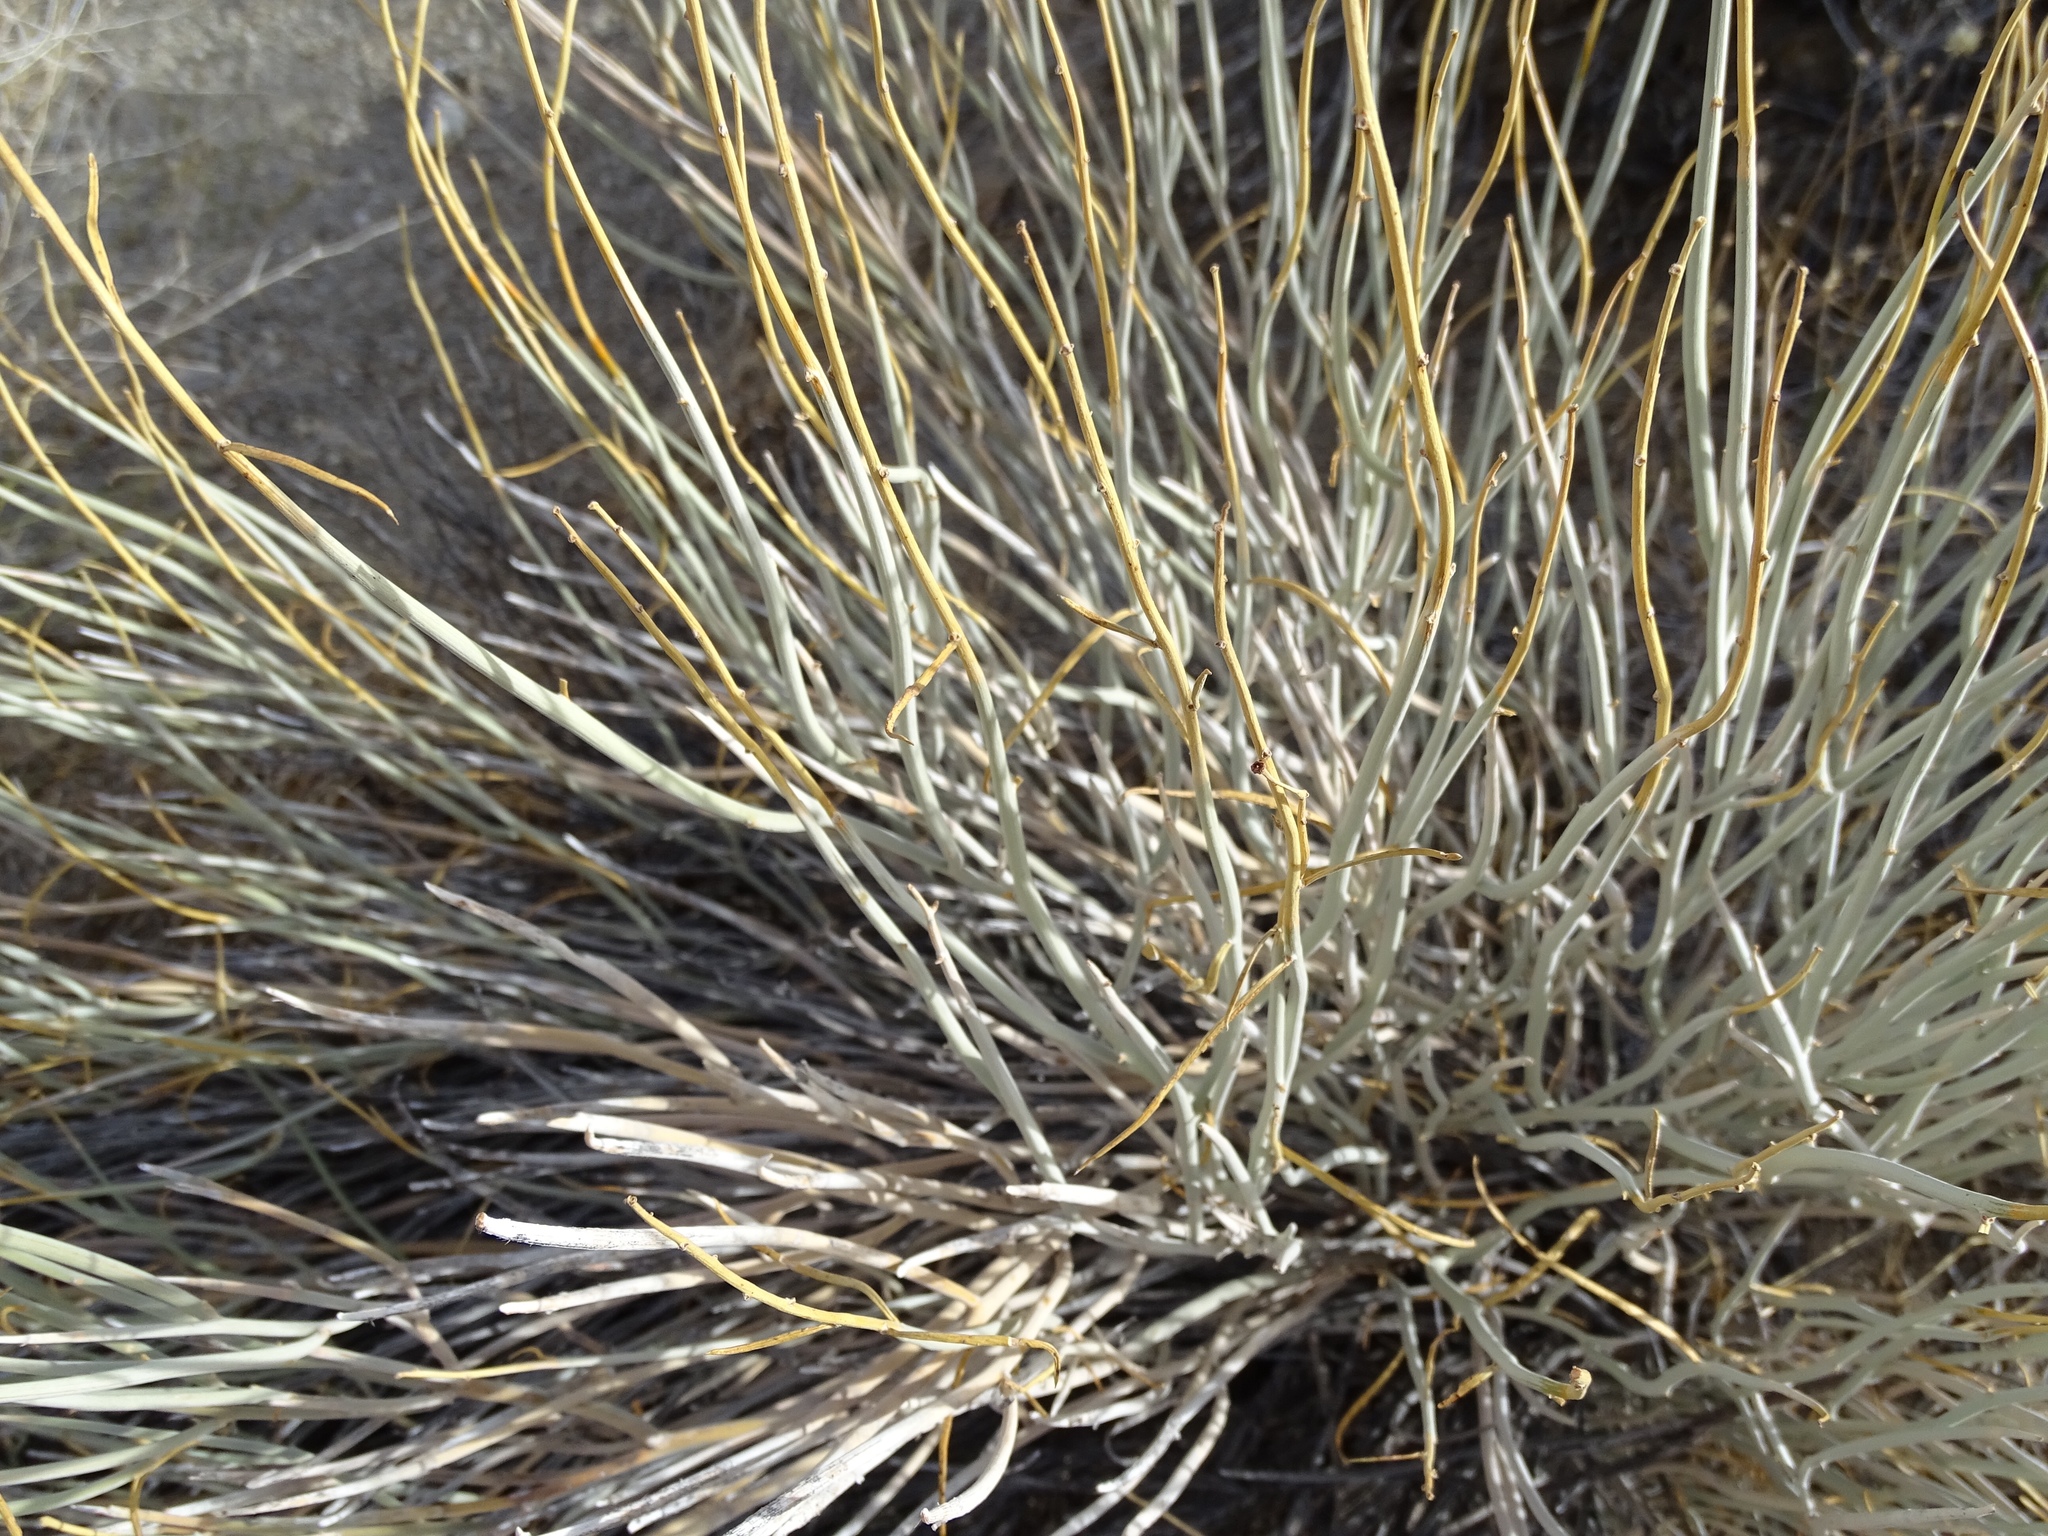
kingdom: Plantae
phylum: Tracheophyta
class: Magnoliopsida
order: Fabales
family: Fabaceae
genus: Senna
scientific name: Senna armata
